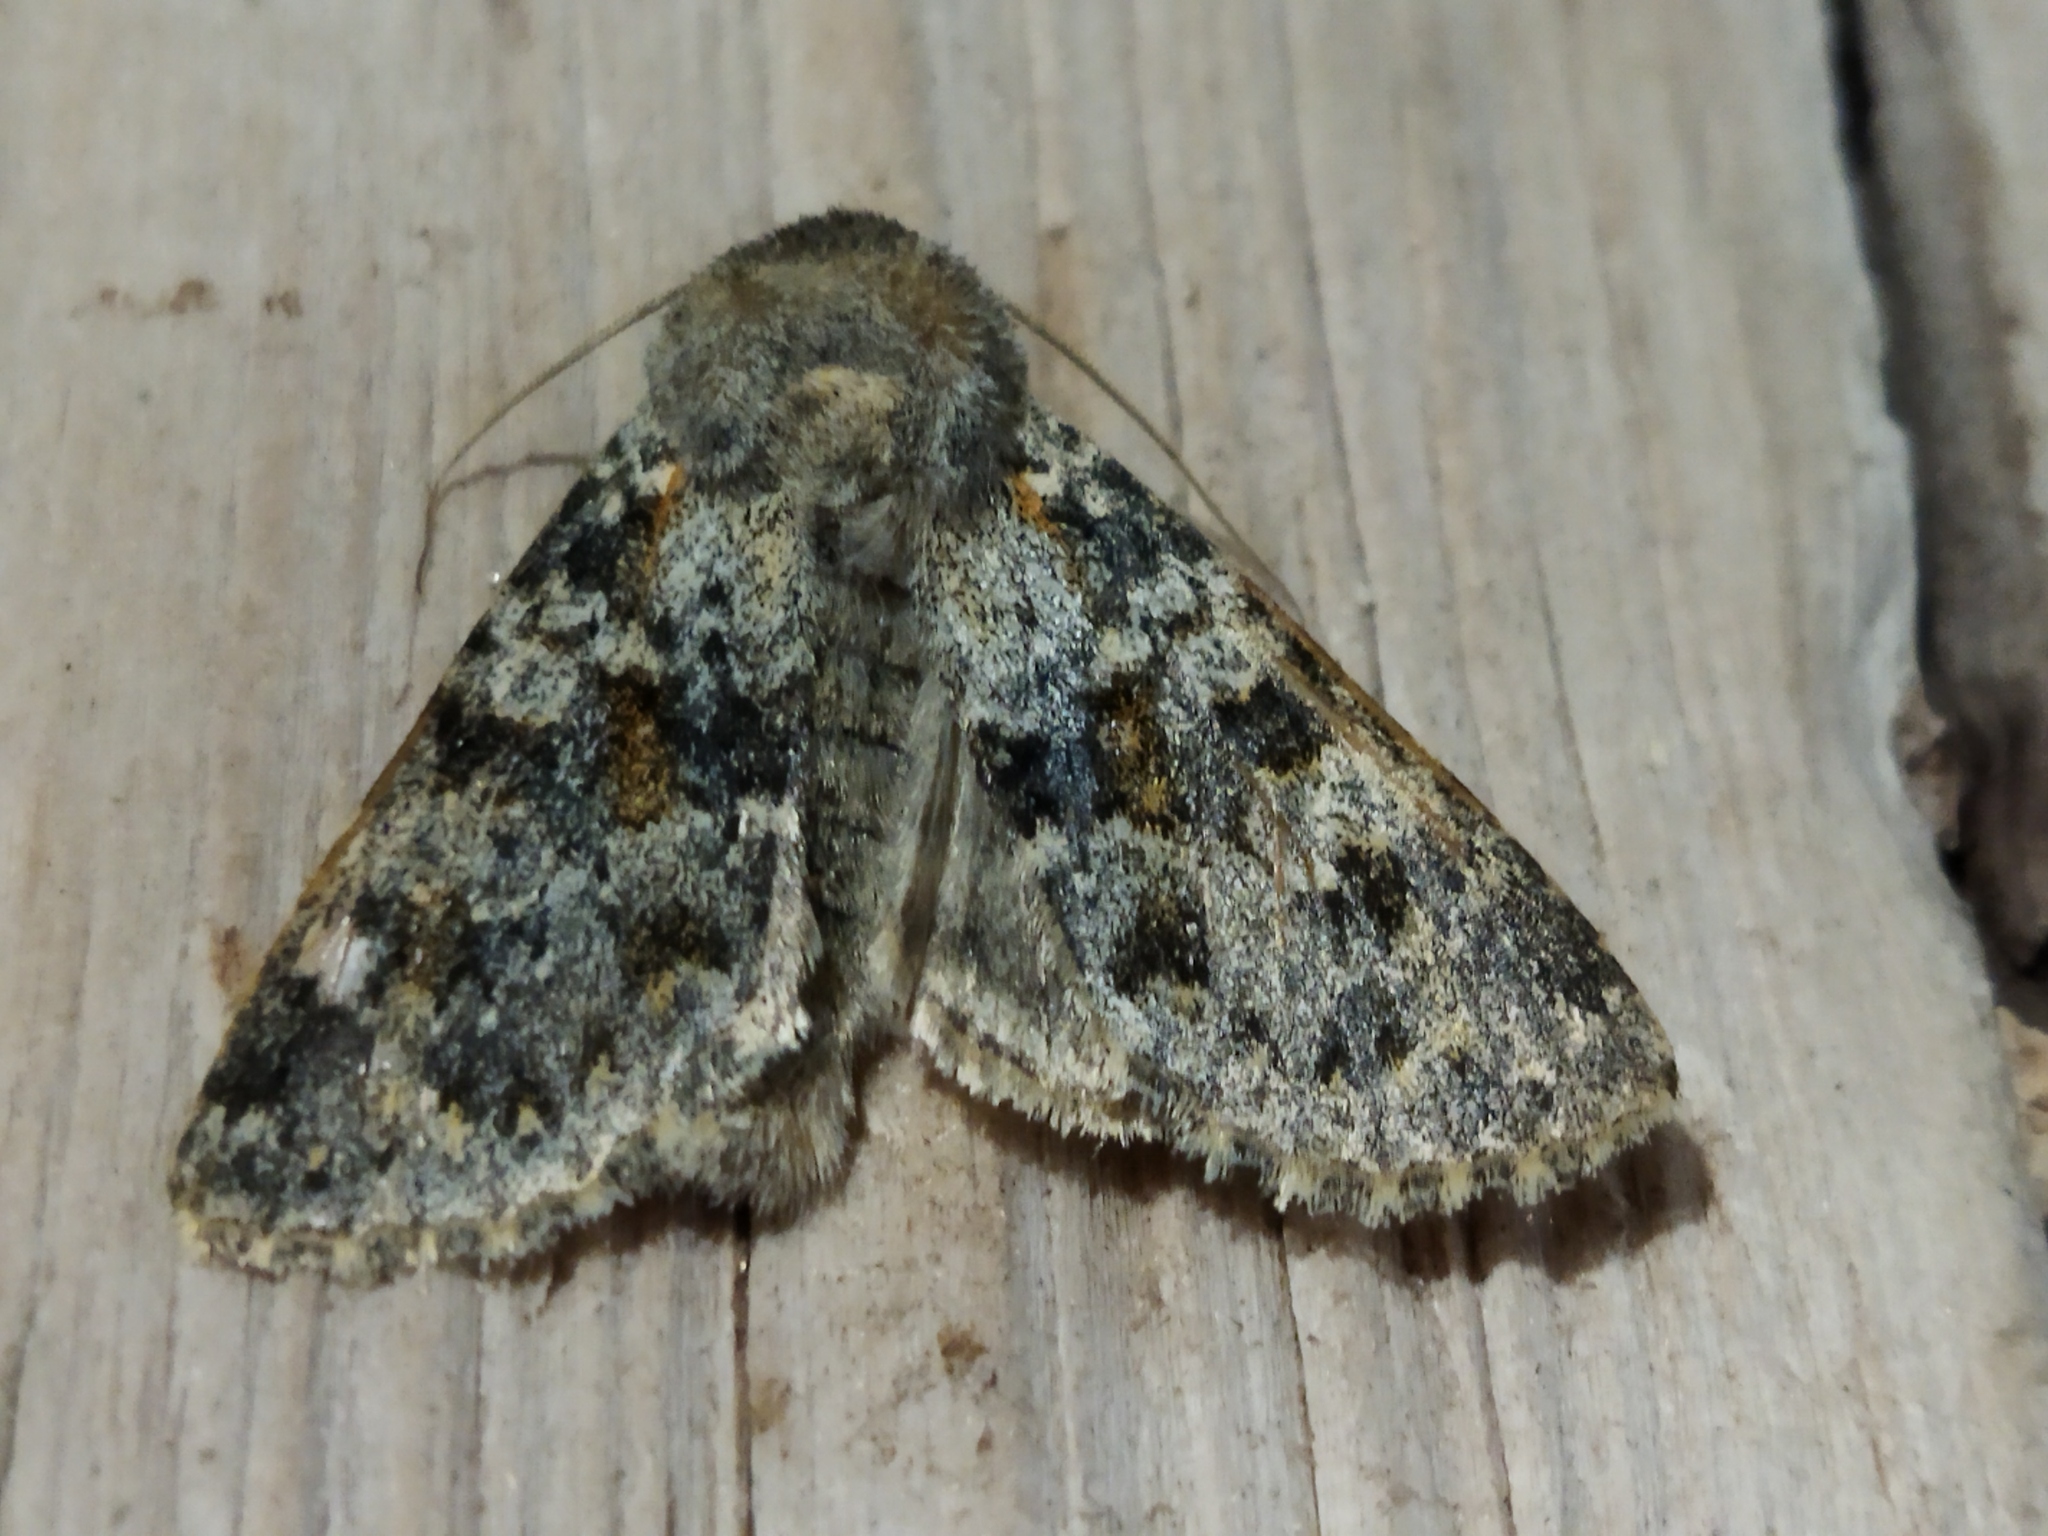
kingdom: Animalia
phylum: Arthropoda
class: Insecta
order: Lepidoptera
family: Noctuidae
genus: Polymixis
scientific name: Polymixis rufocincta
